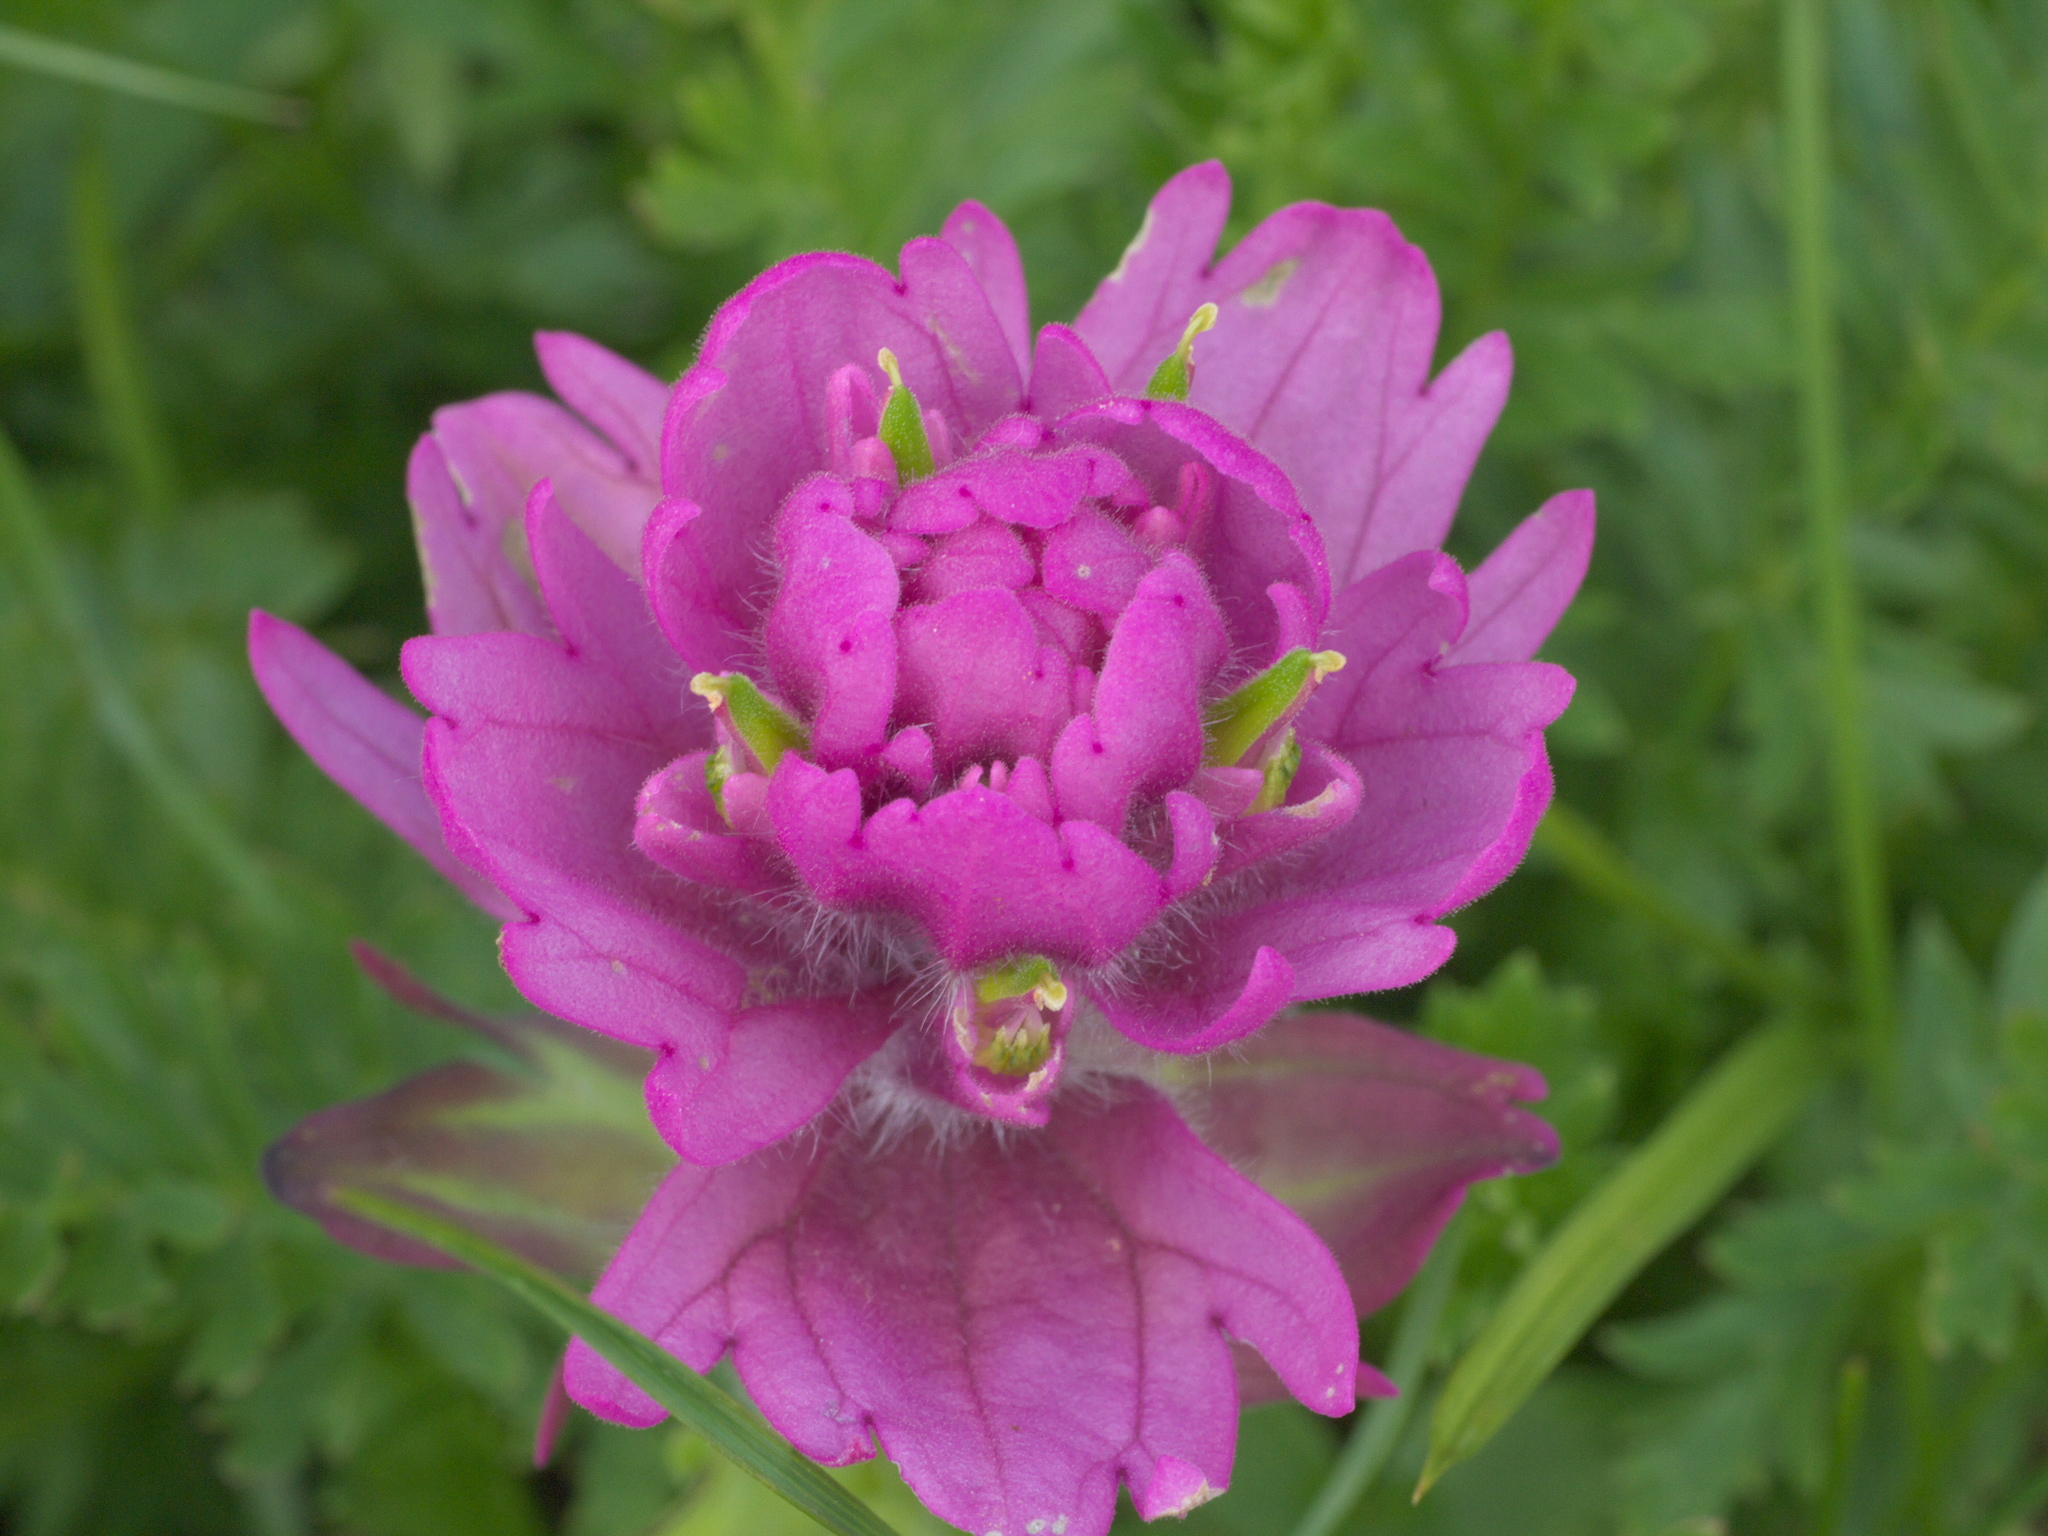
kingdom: Plantae
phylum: Tracheophyta
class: Magnoliopsida
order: Lamiales
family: Orobanchaceae
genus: Castilleja
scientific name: Castilleja rhexifolia
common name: Rocky mountain paintbrush
